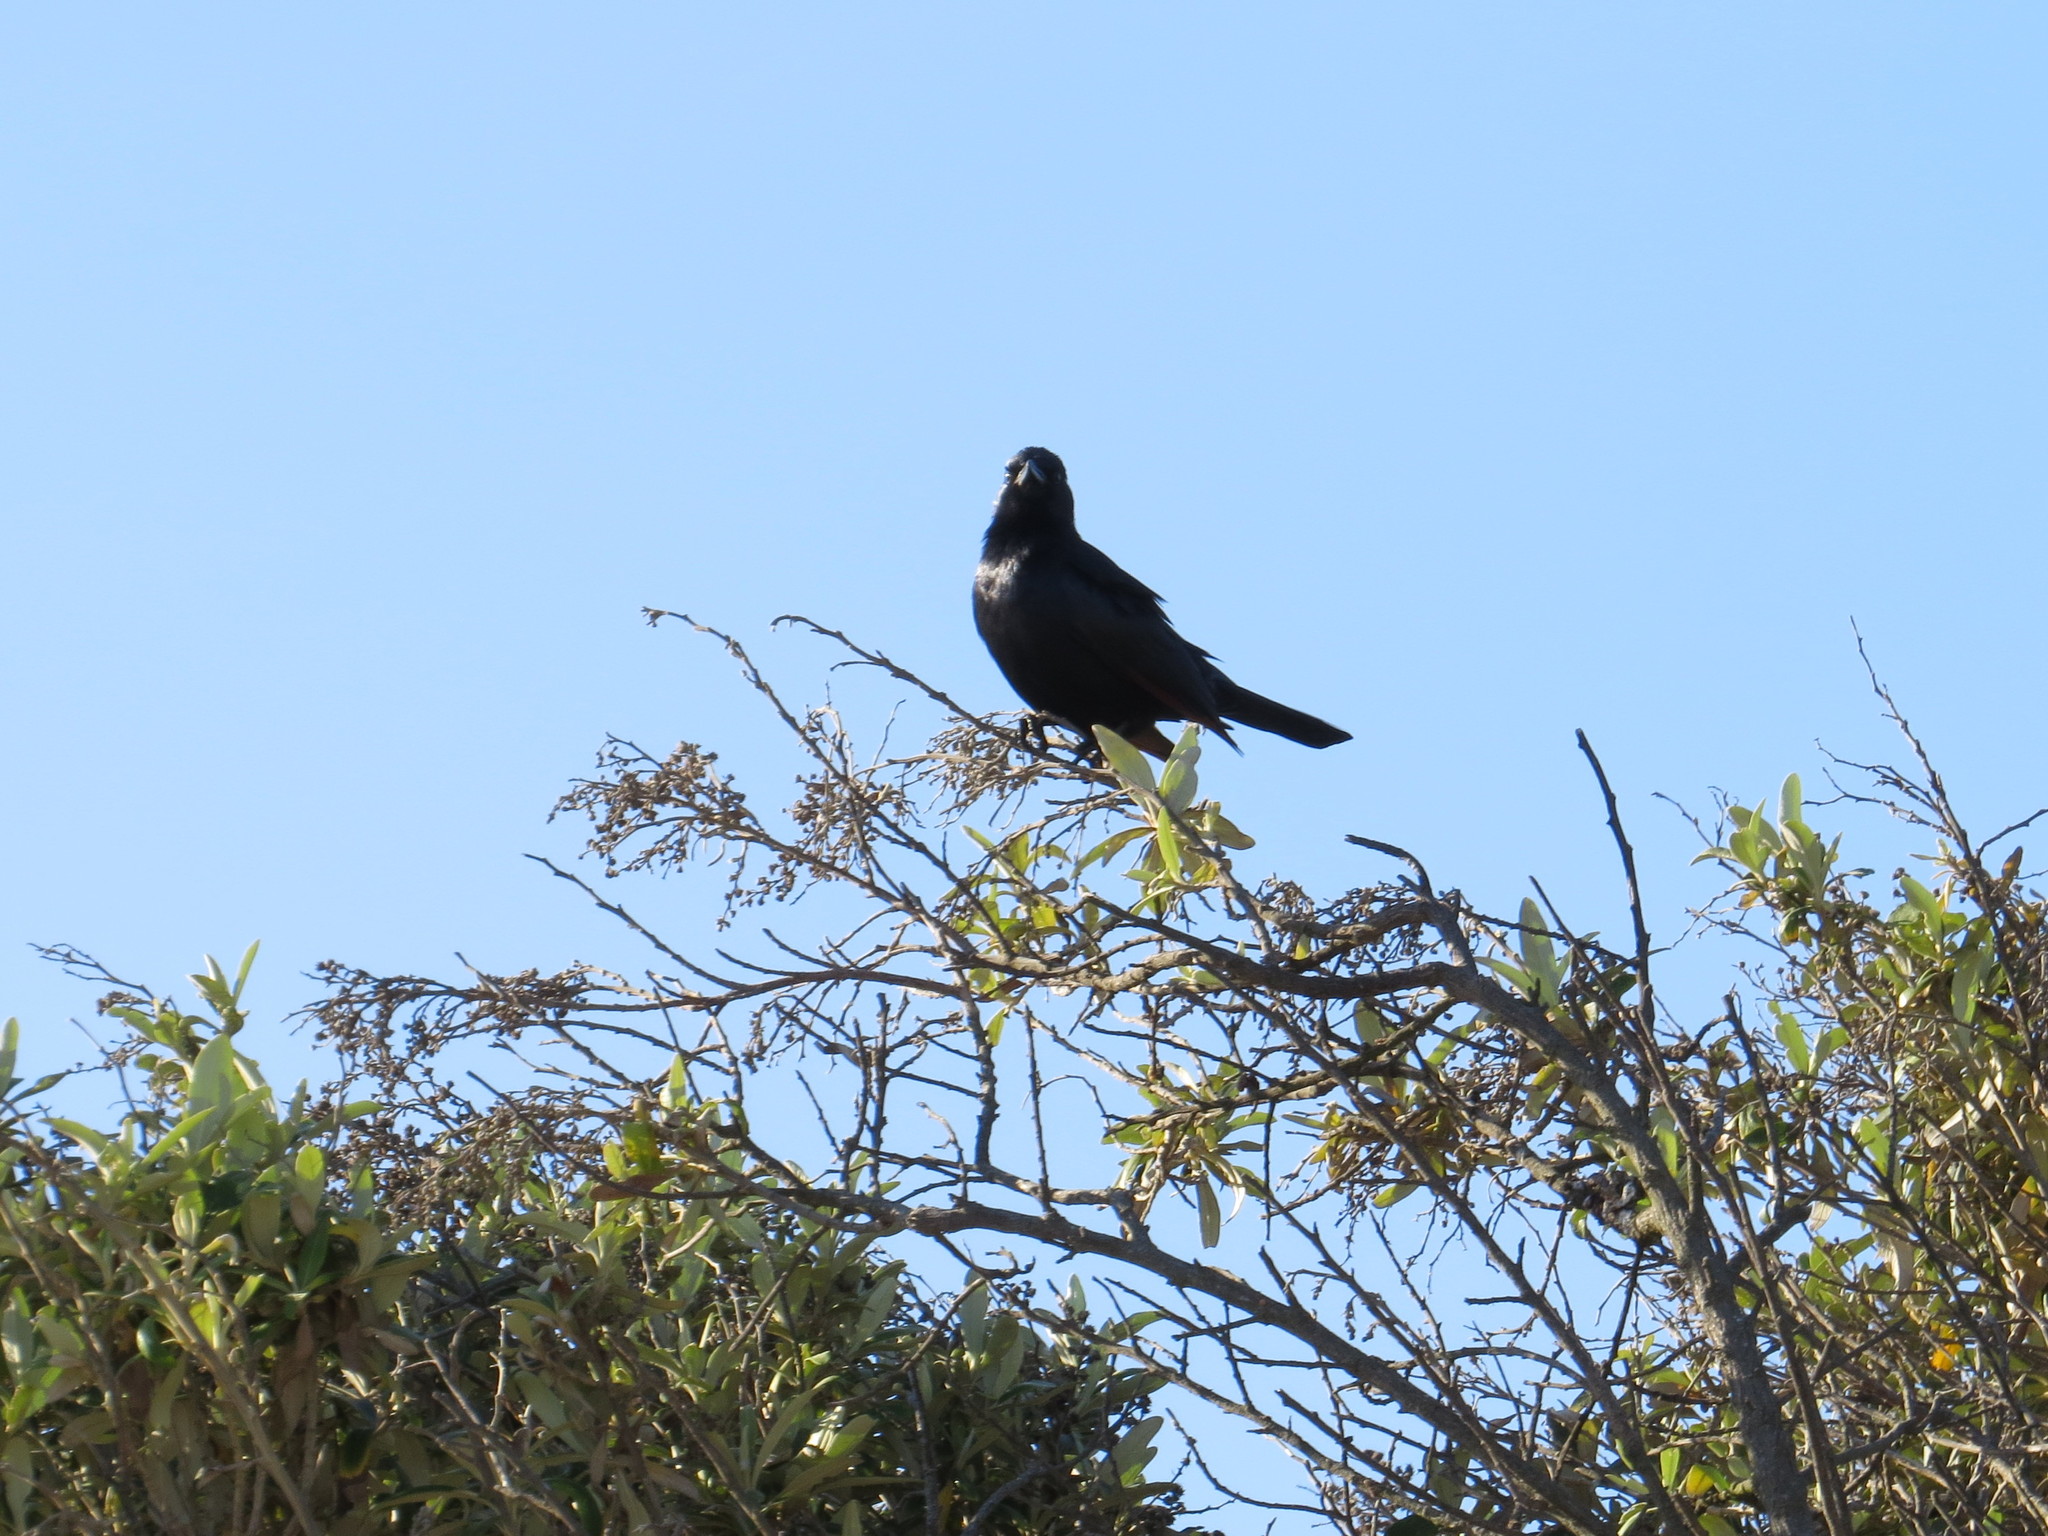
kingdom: Animalia
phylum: Chordata
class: Aves
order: Passeriformes
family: Sturnidae
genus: Onychognathus
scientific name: Onychognathus morio
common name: Red-winged starling
